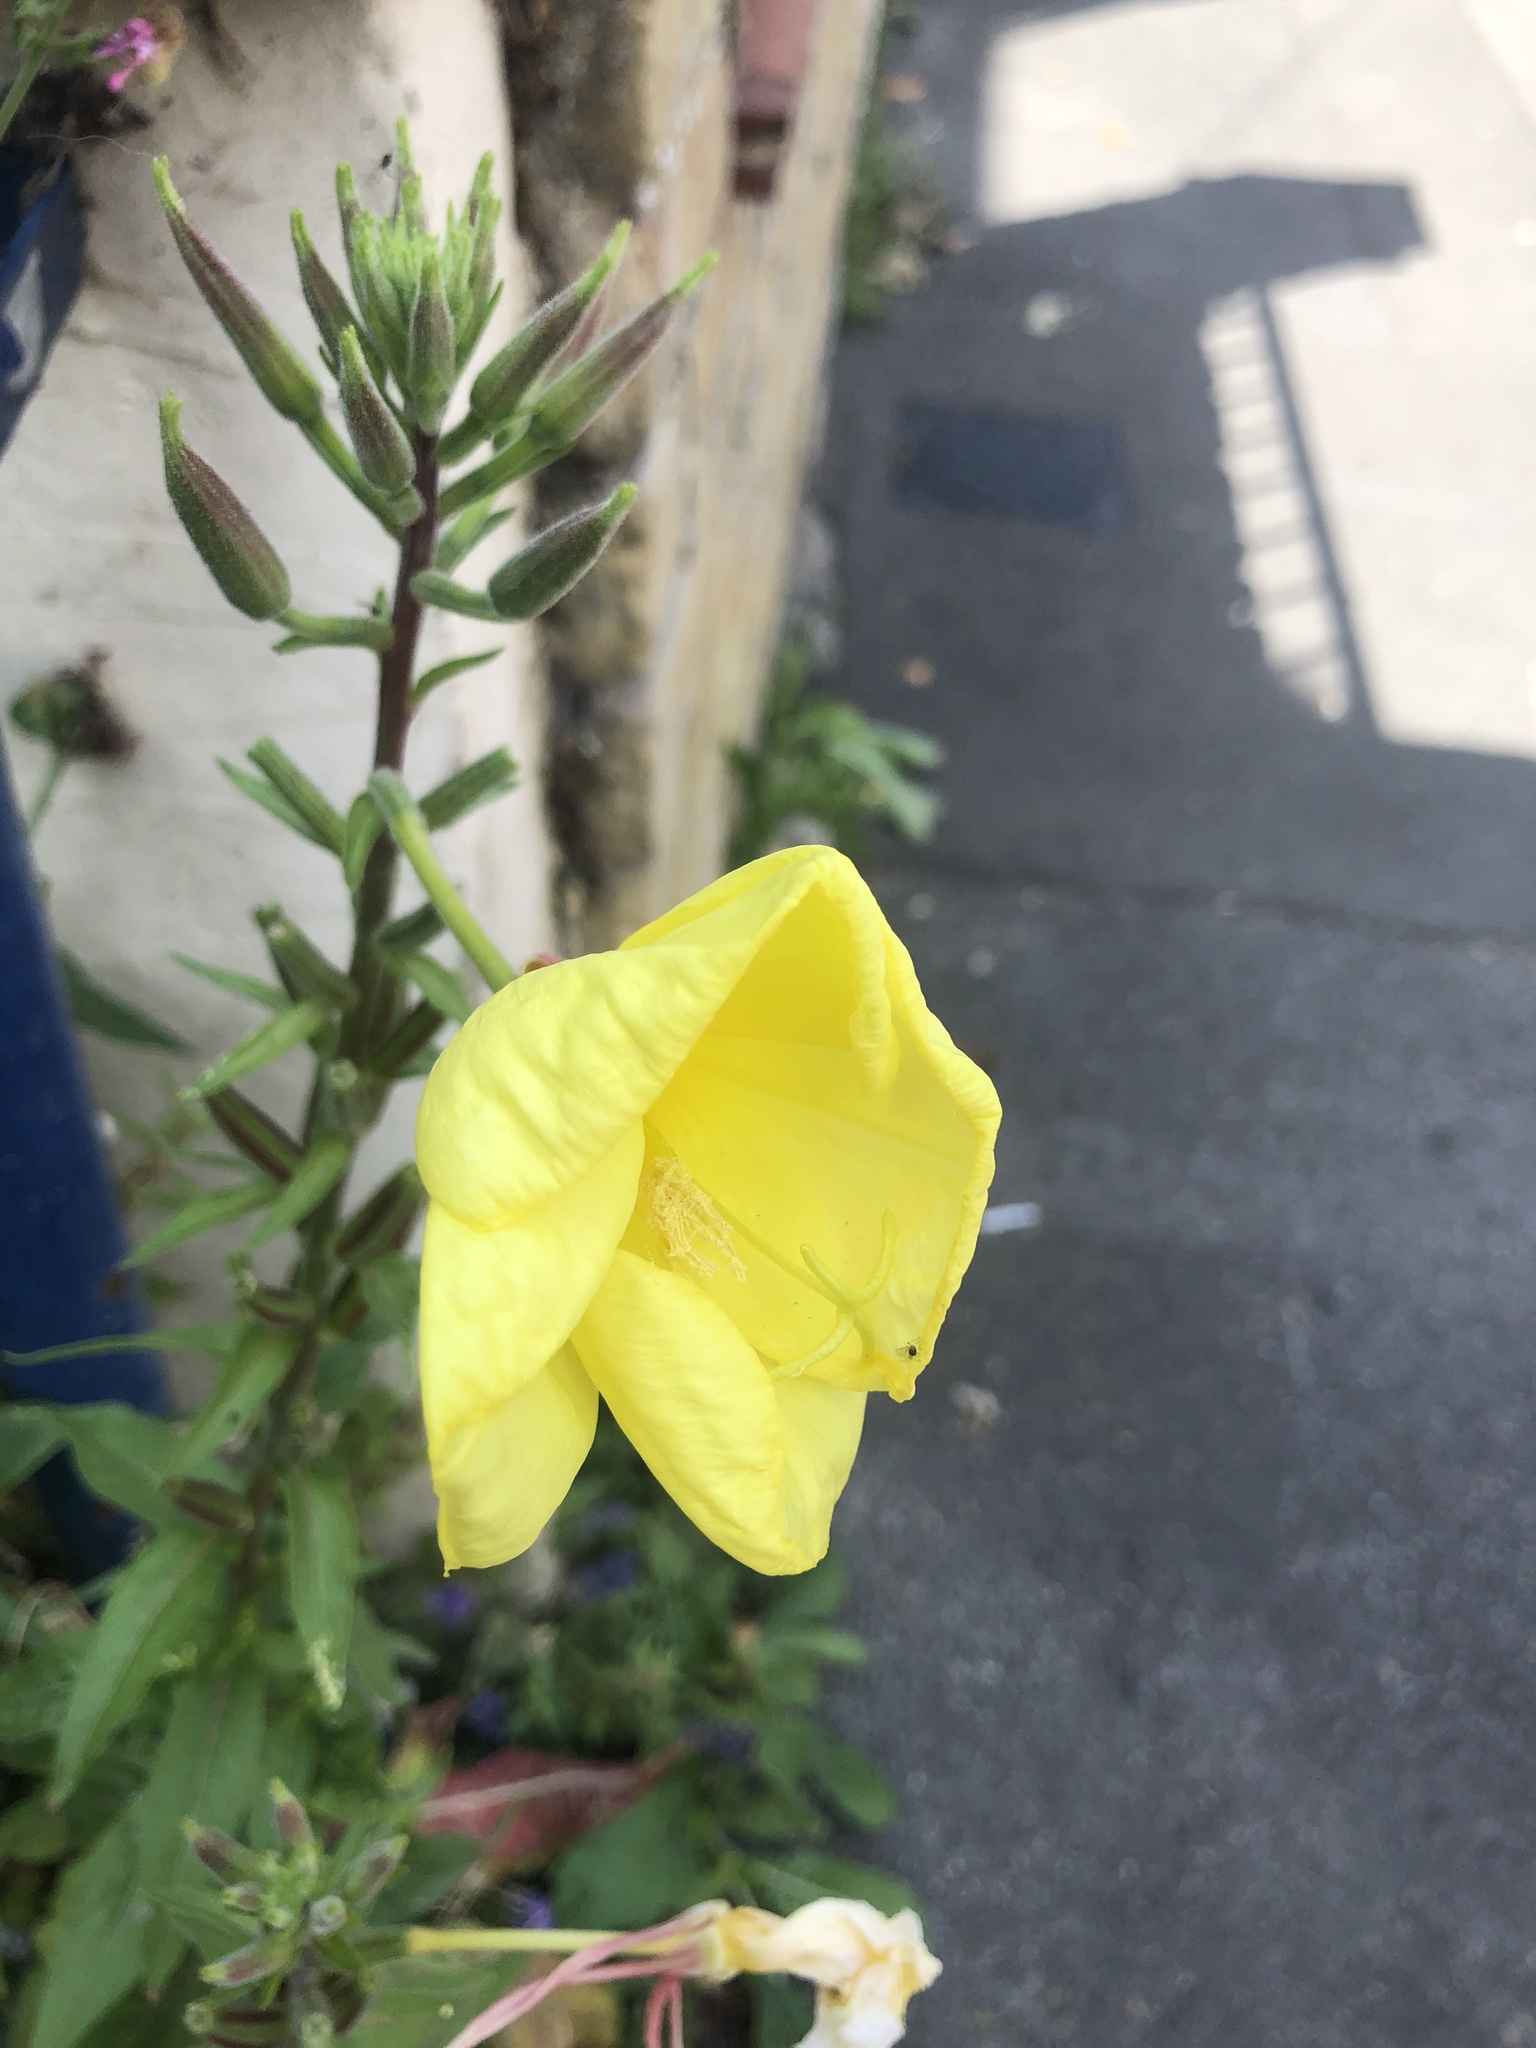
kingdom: Plantae
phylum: Tracheophyta
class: Magnoliopsida
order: Myrtales
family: Onagraceae
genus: Oenothera
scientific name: Oenothera glazioviana
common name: Large-flowered evening-primrose
